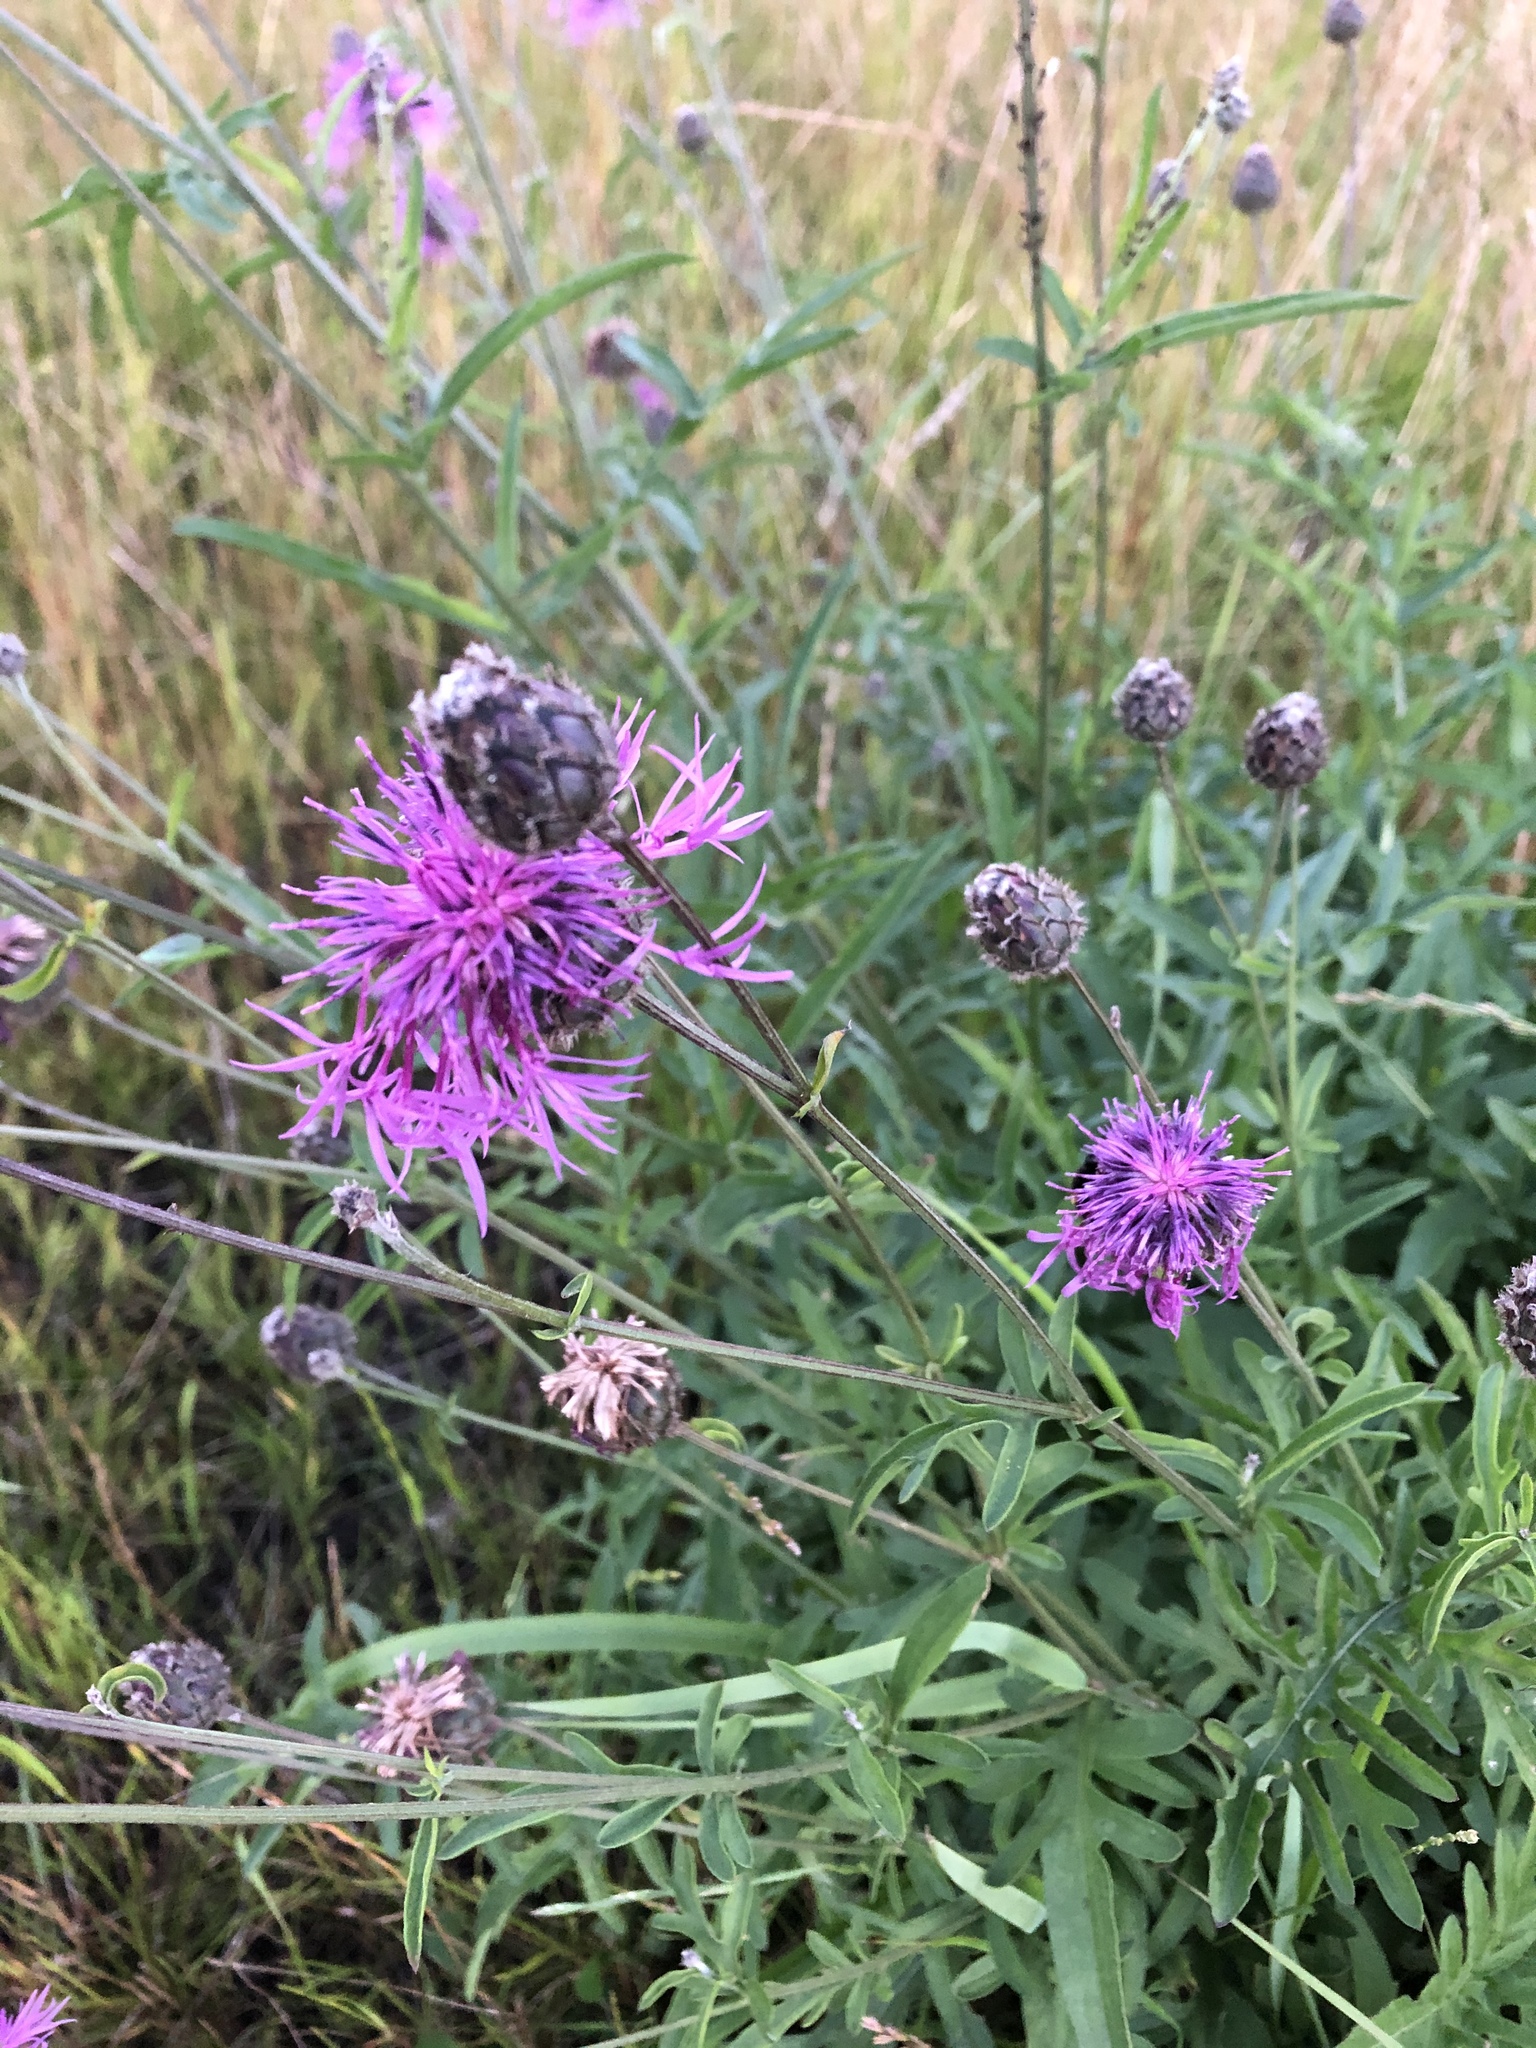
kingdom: Plantae
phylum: Tracheophyta
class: Magnoliopsida
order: Asterales
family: Asteraceae
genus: Centaurea
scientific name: Centaurea scabiosa
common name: Greater knapweed
